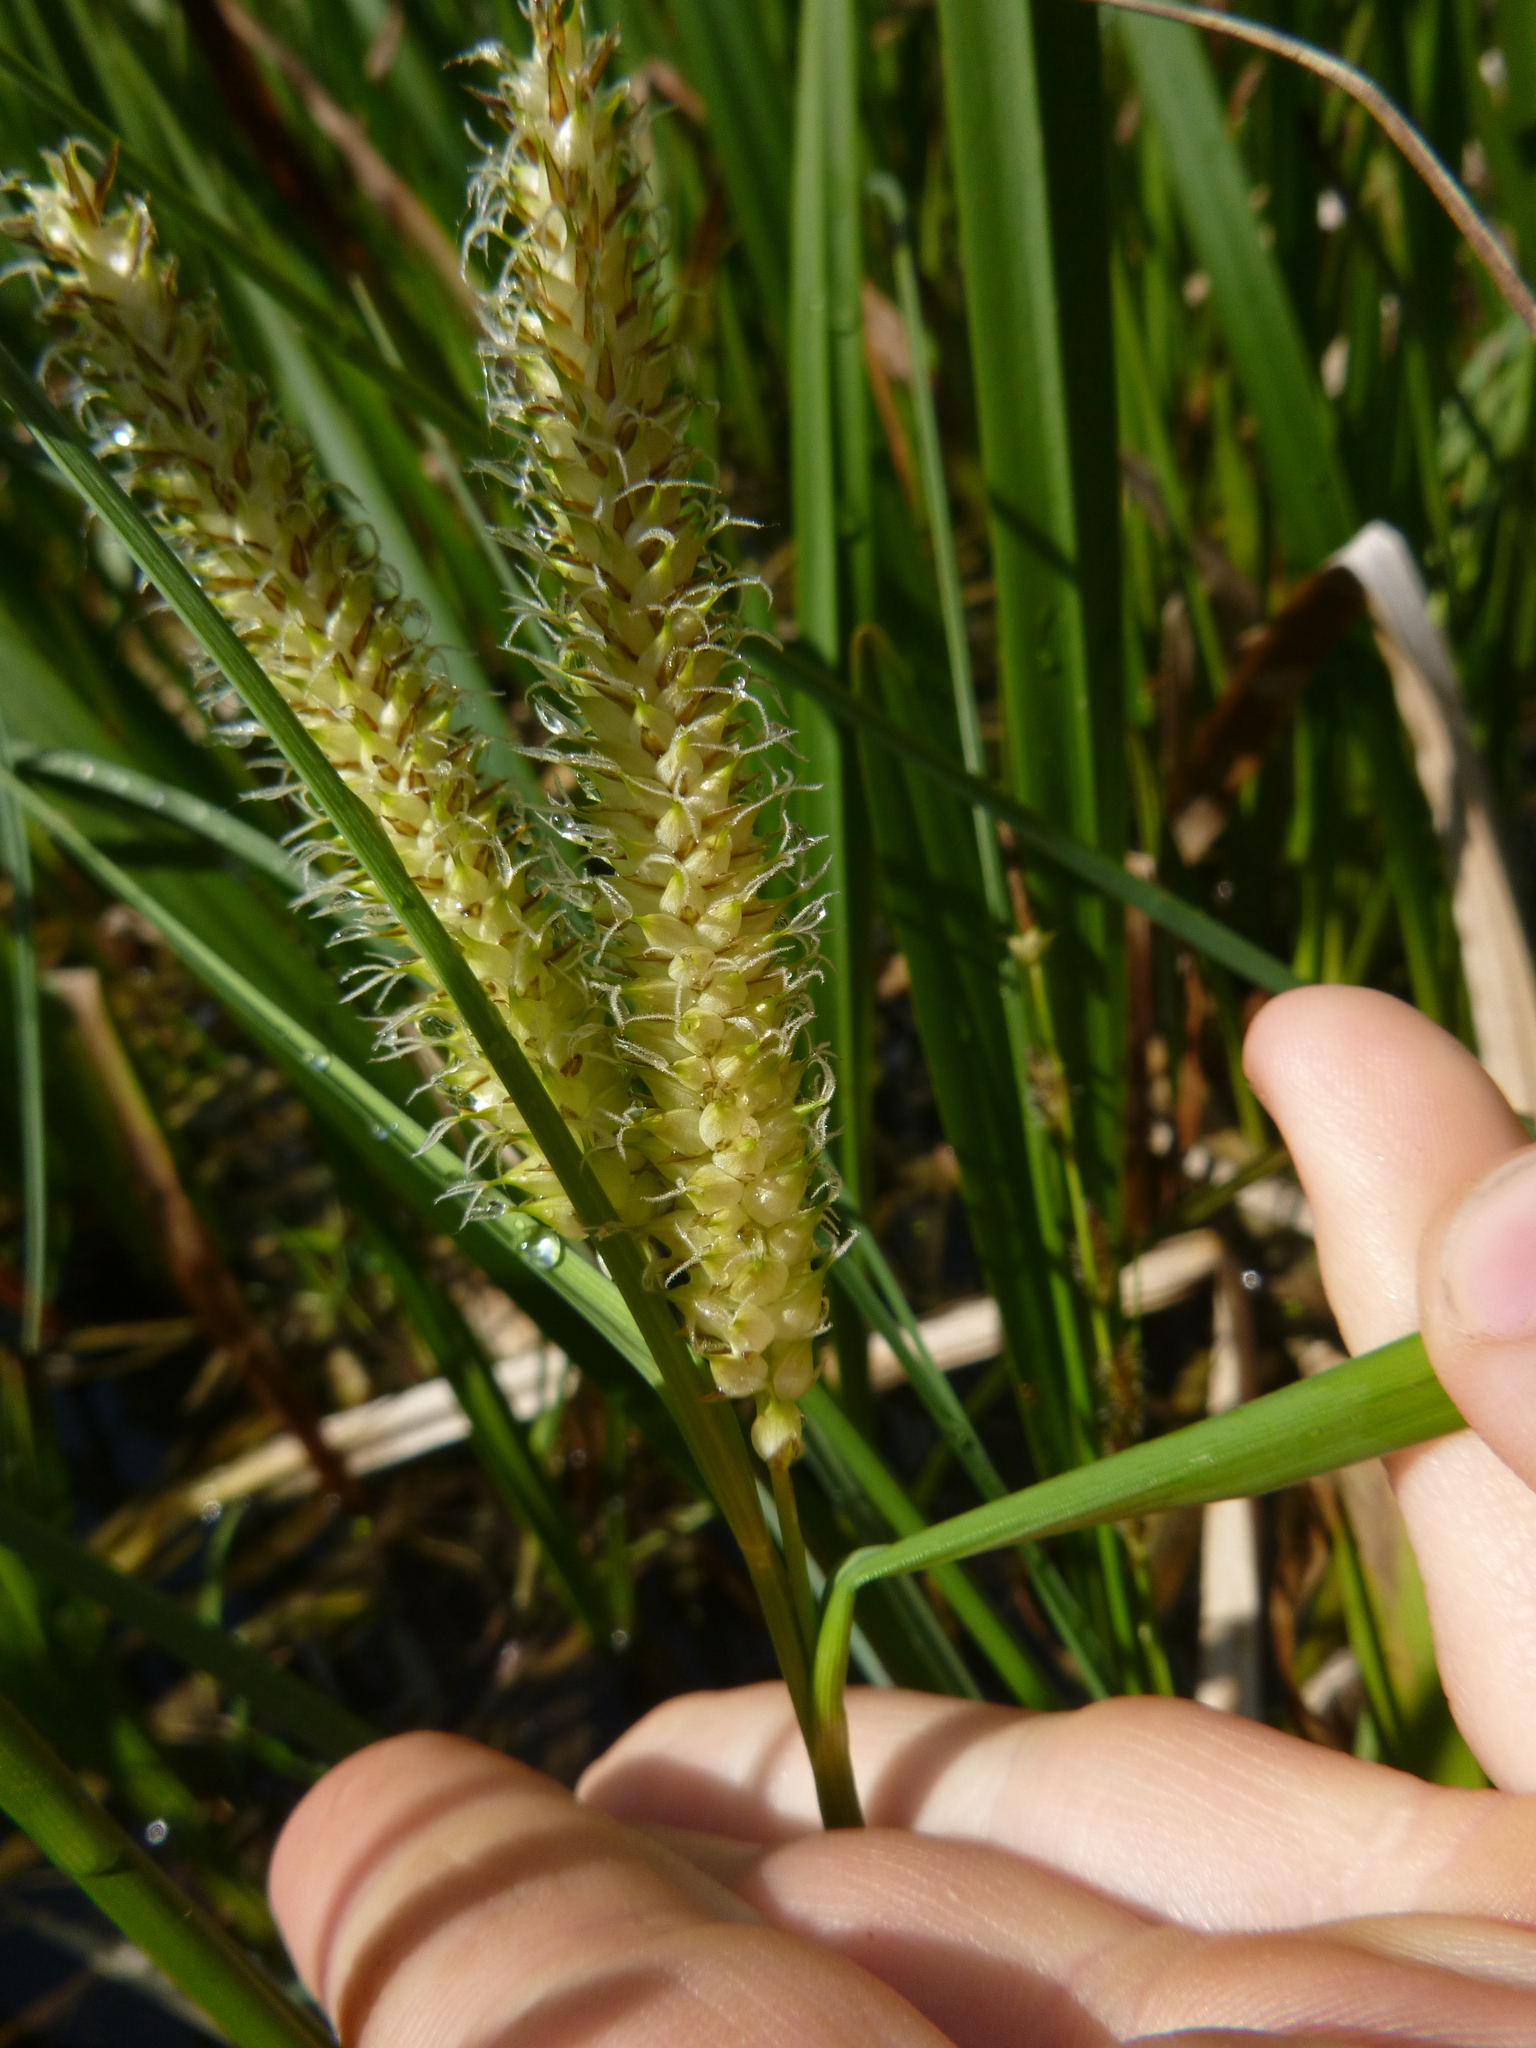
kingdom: Plantae
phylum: Tracheophyta
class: Liliopsida
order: Poales
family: Cyperaceae
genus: Carex
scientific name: Carex rostrata
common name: Bottle sedge
